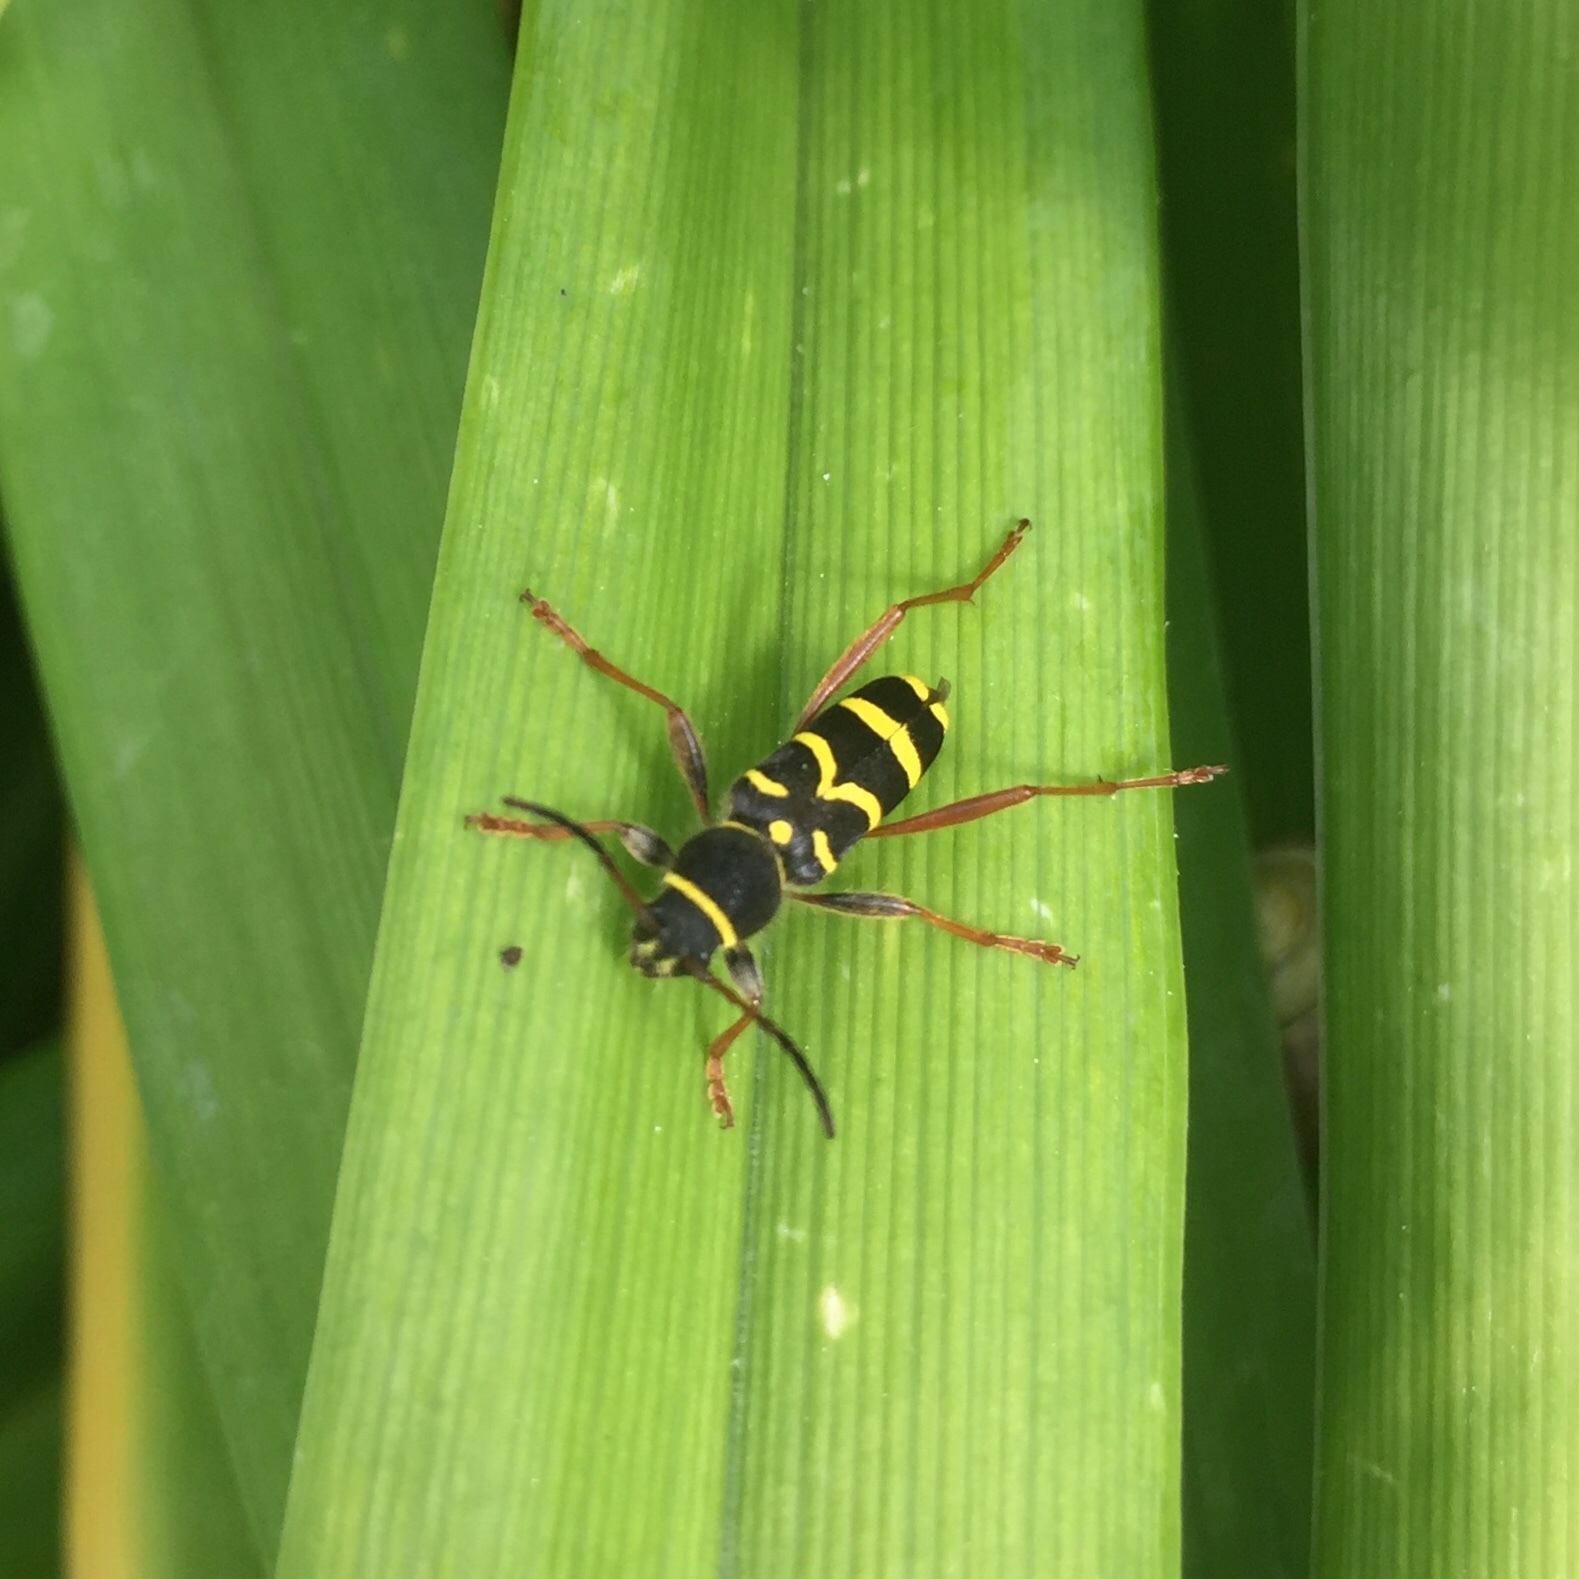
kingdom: Animalia
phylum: Arthropoda
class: Insecta
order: Coleoptera
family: Cerambycidae
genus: Clytus
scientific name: Clytus arietis
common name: Wasp beetle
